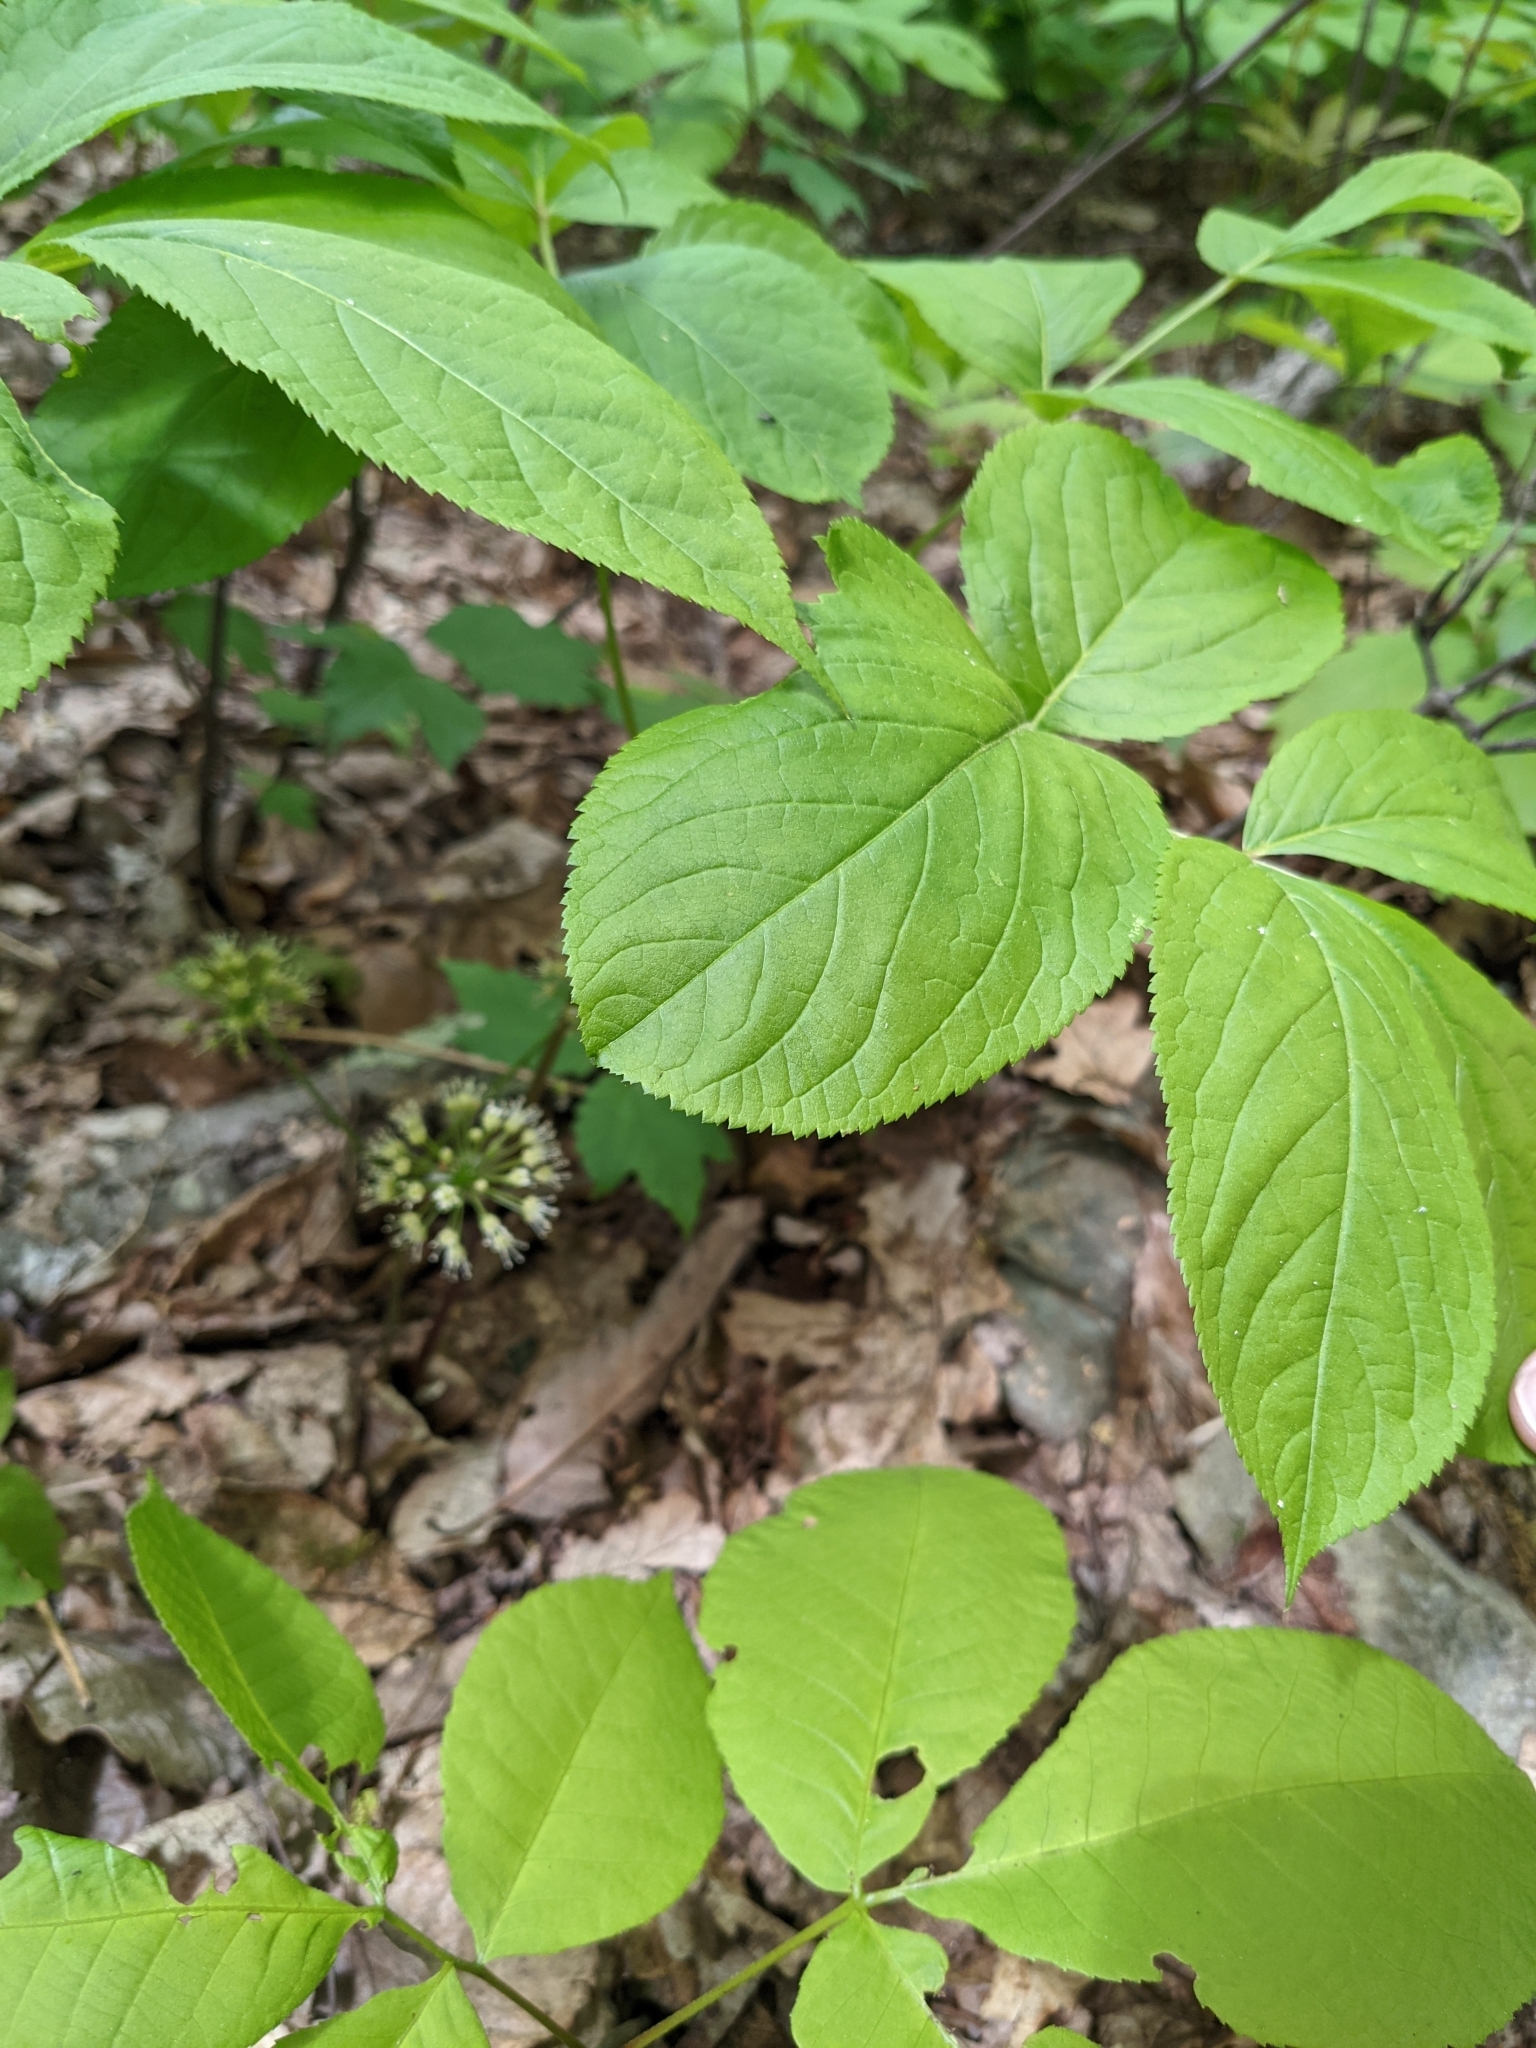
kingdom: Plantae
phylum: Tracheophyta
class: Magnoliopsida
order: Apiales
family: Araliaceae
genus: Aralia
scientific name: Aralia nudicaulis
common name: Wild sarsaparilla
